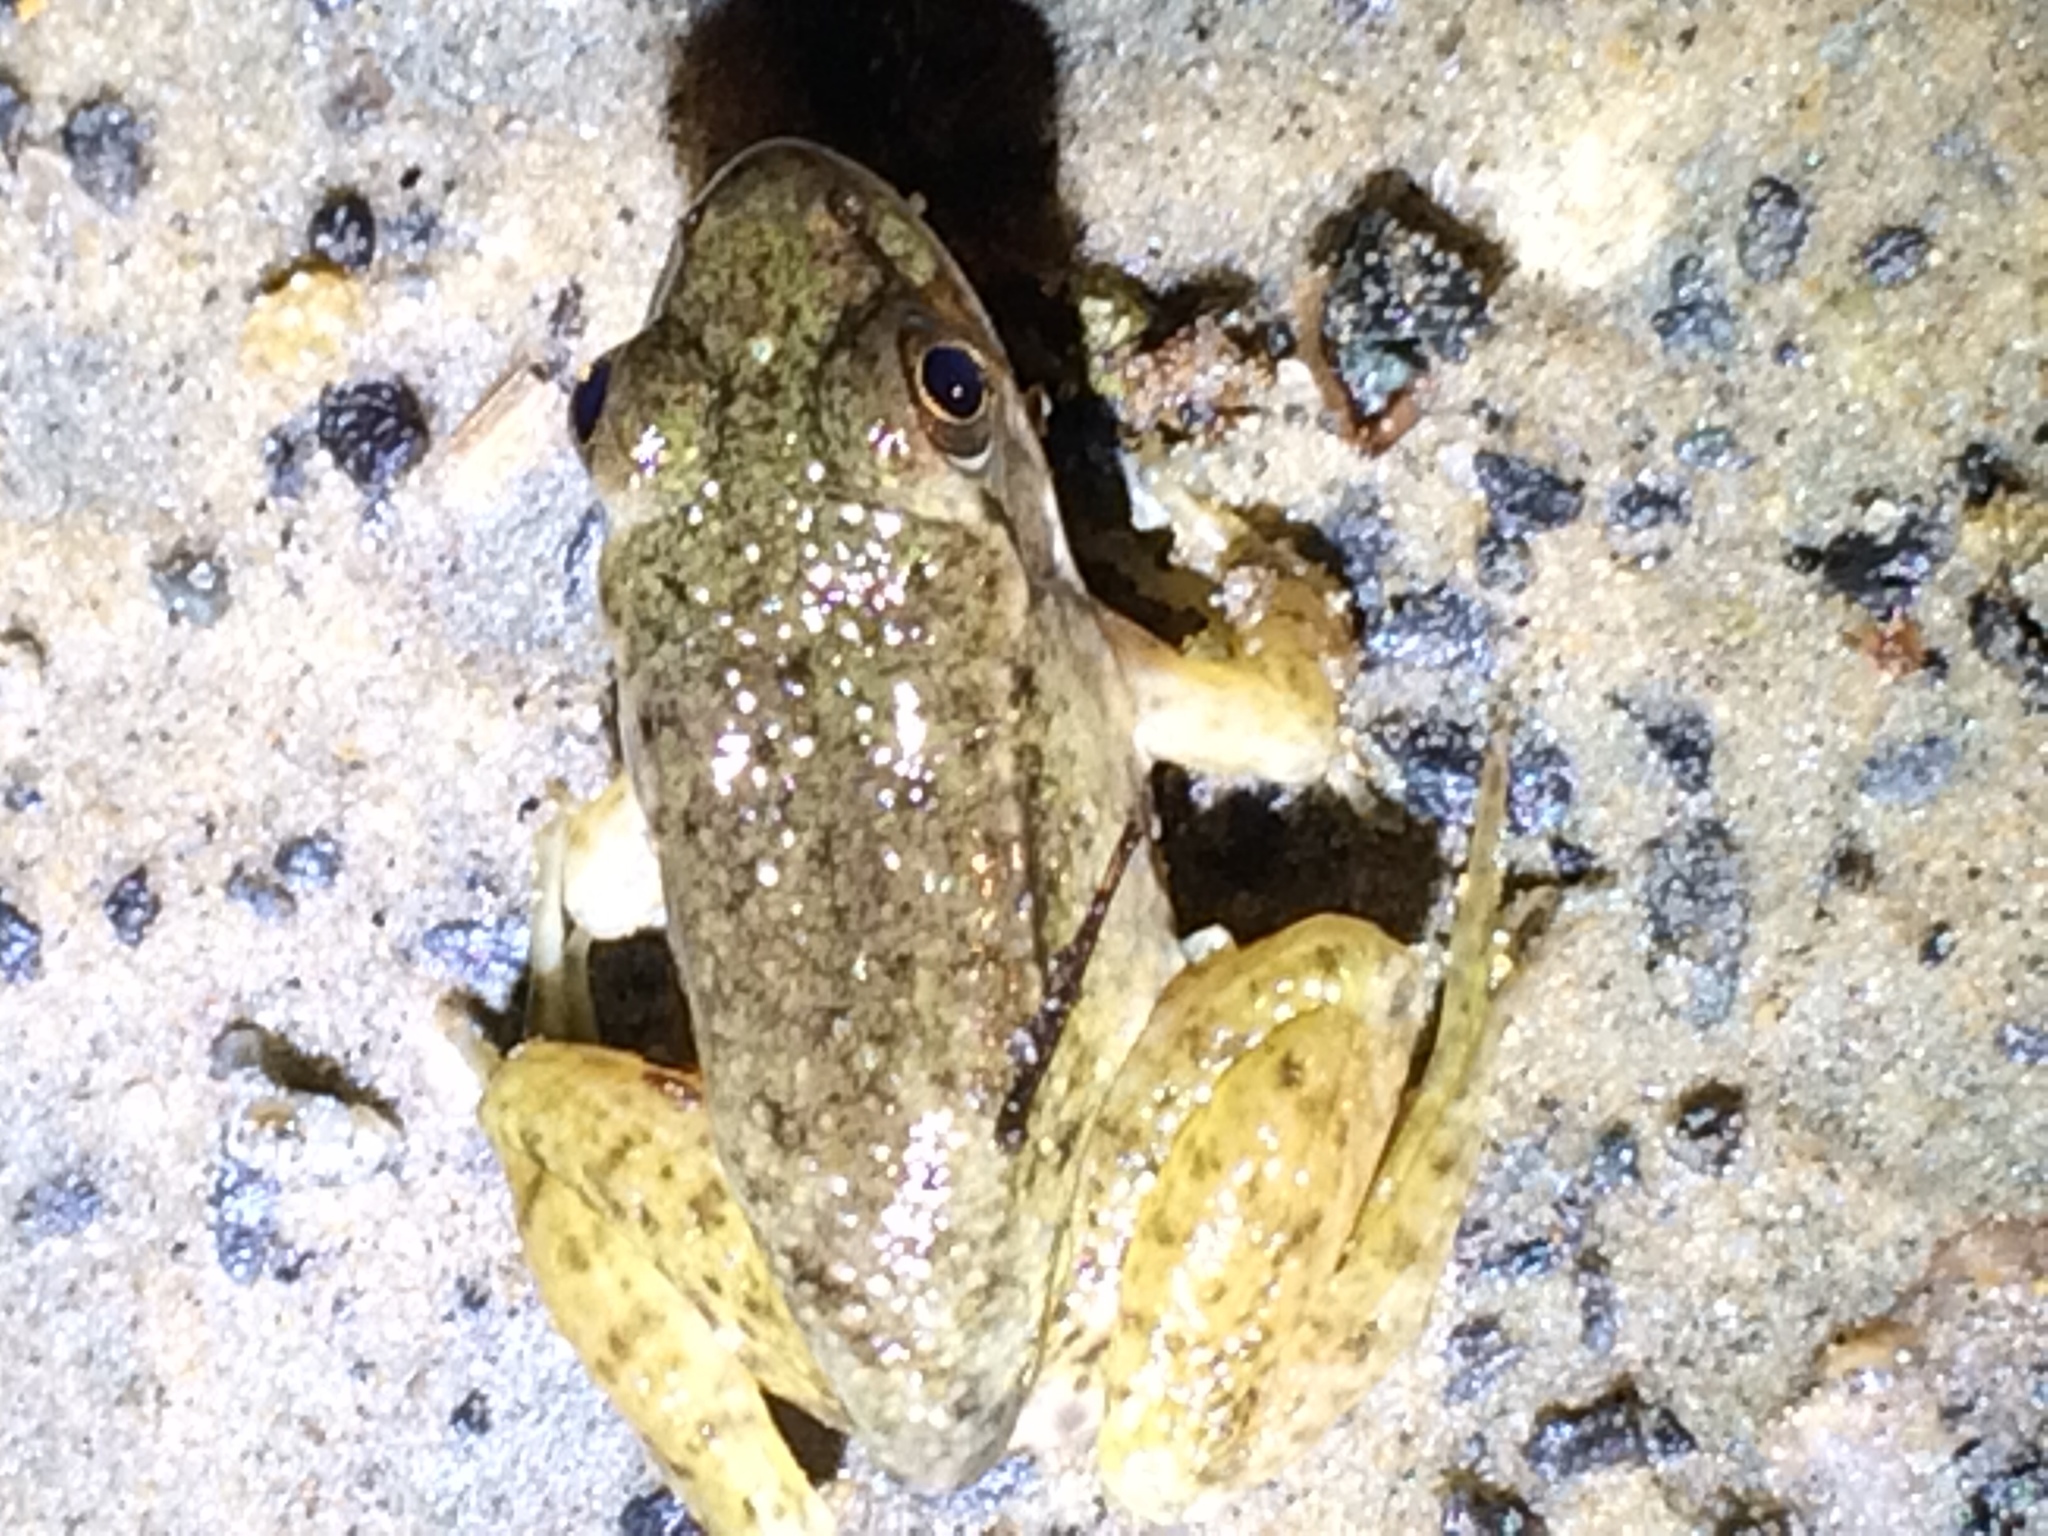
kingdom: Animalia
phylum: Chordata
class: Amphibia
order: Anura
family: Ranidae
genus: Lithobates
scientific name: Lithobates clamitans
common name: Green frog
